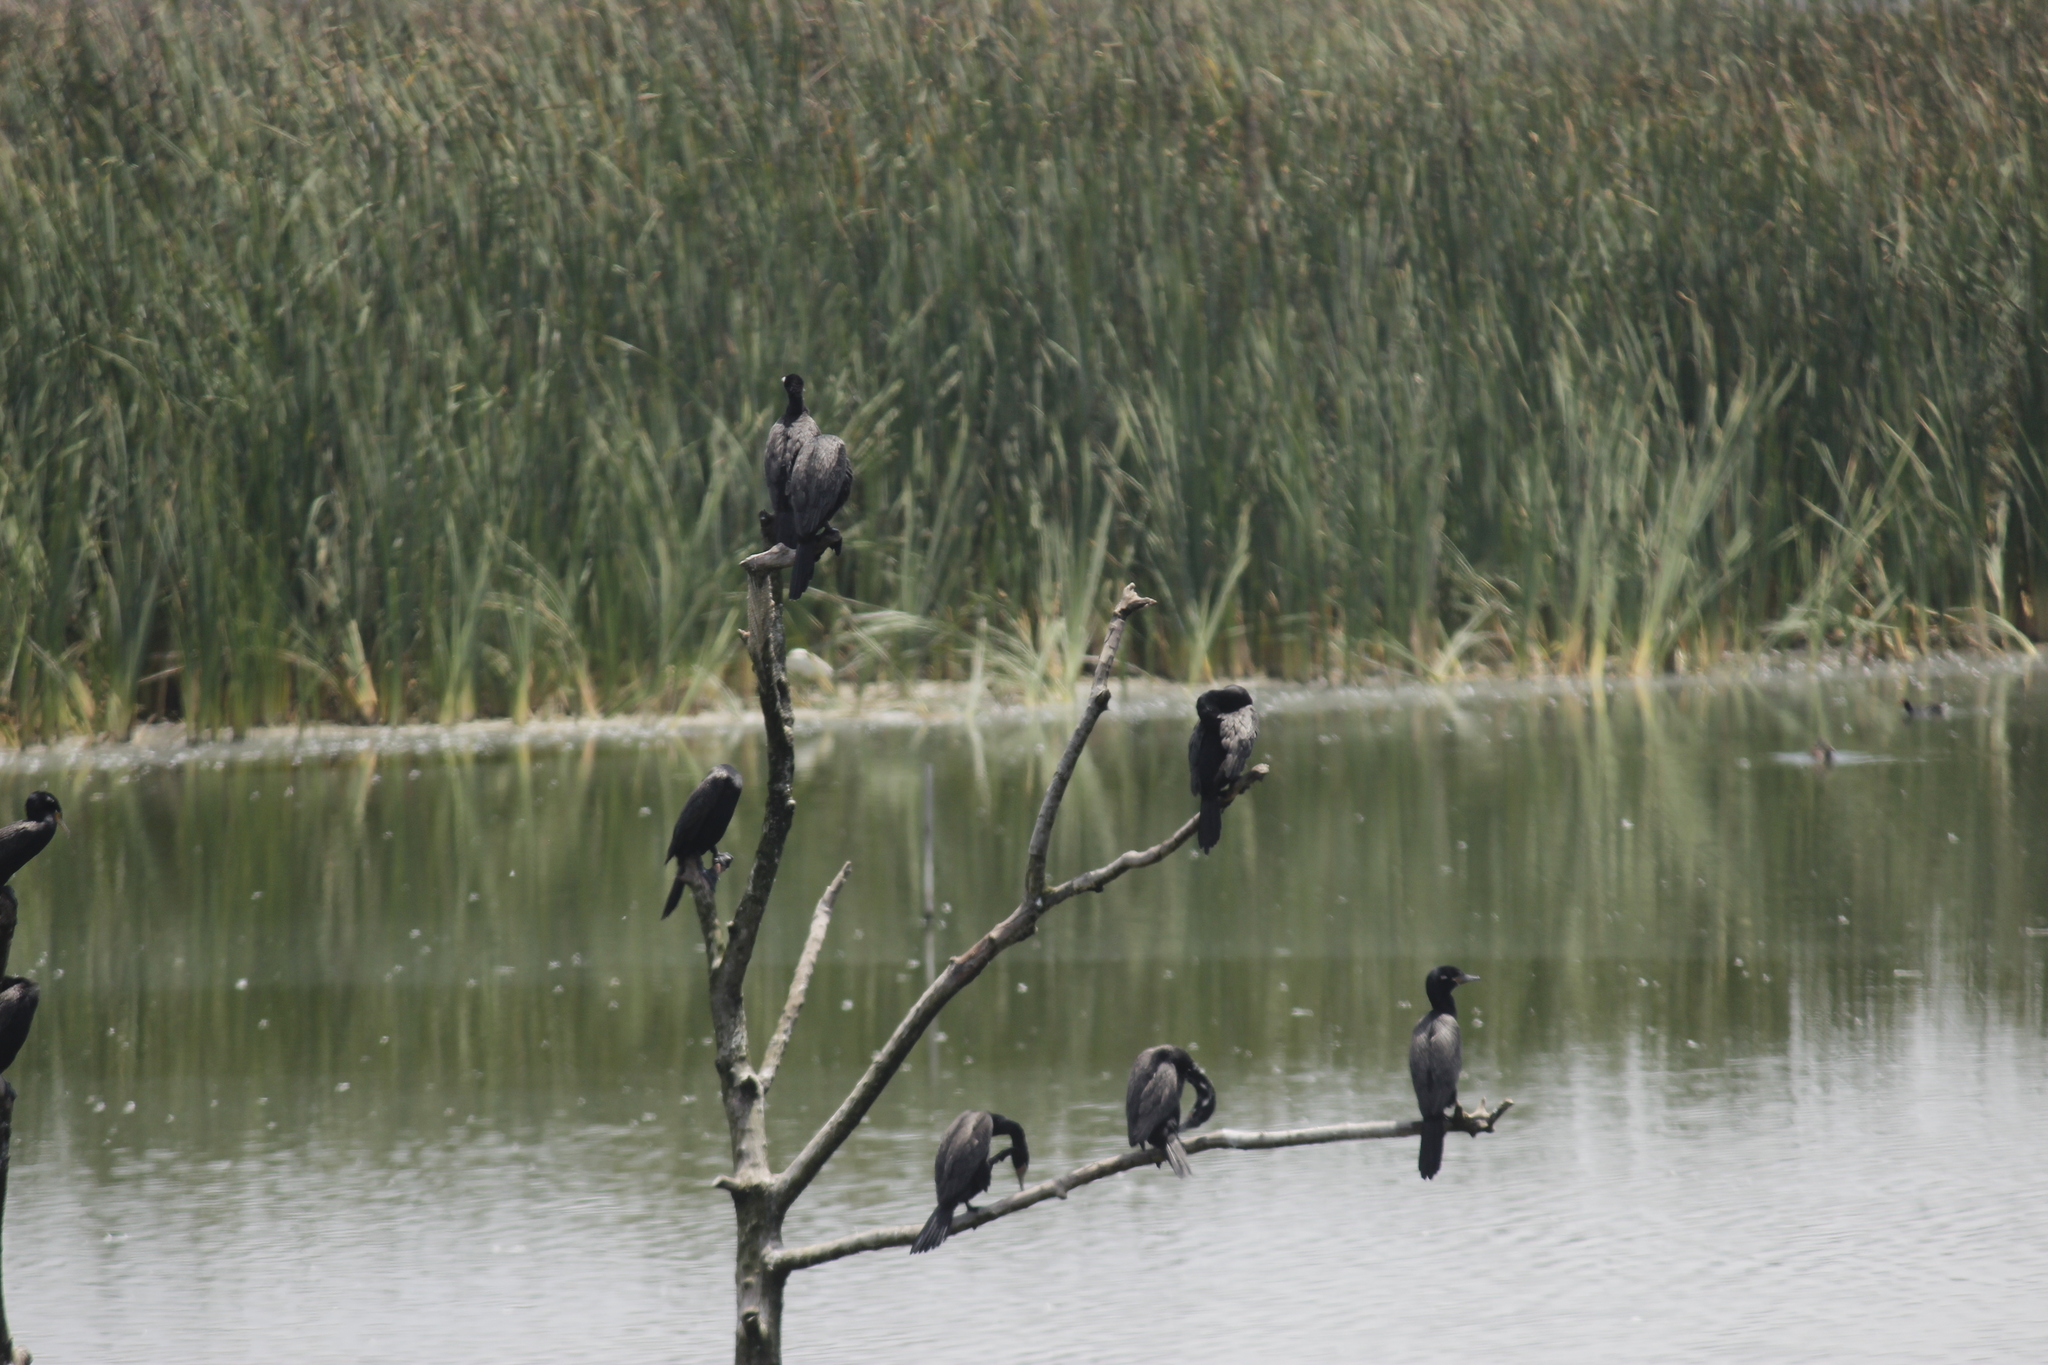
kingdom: Animalia
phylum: Chordata
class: Aves
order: Suliformes
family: Phalacrocoracidae
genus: Phalacrocorax
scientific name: Phalacrocorax brasilianus
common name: Neotropic cormorant
